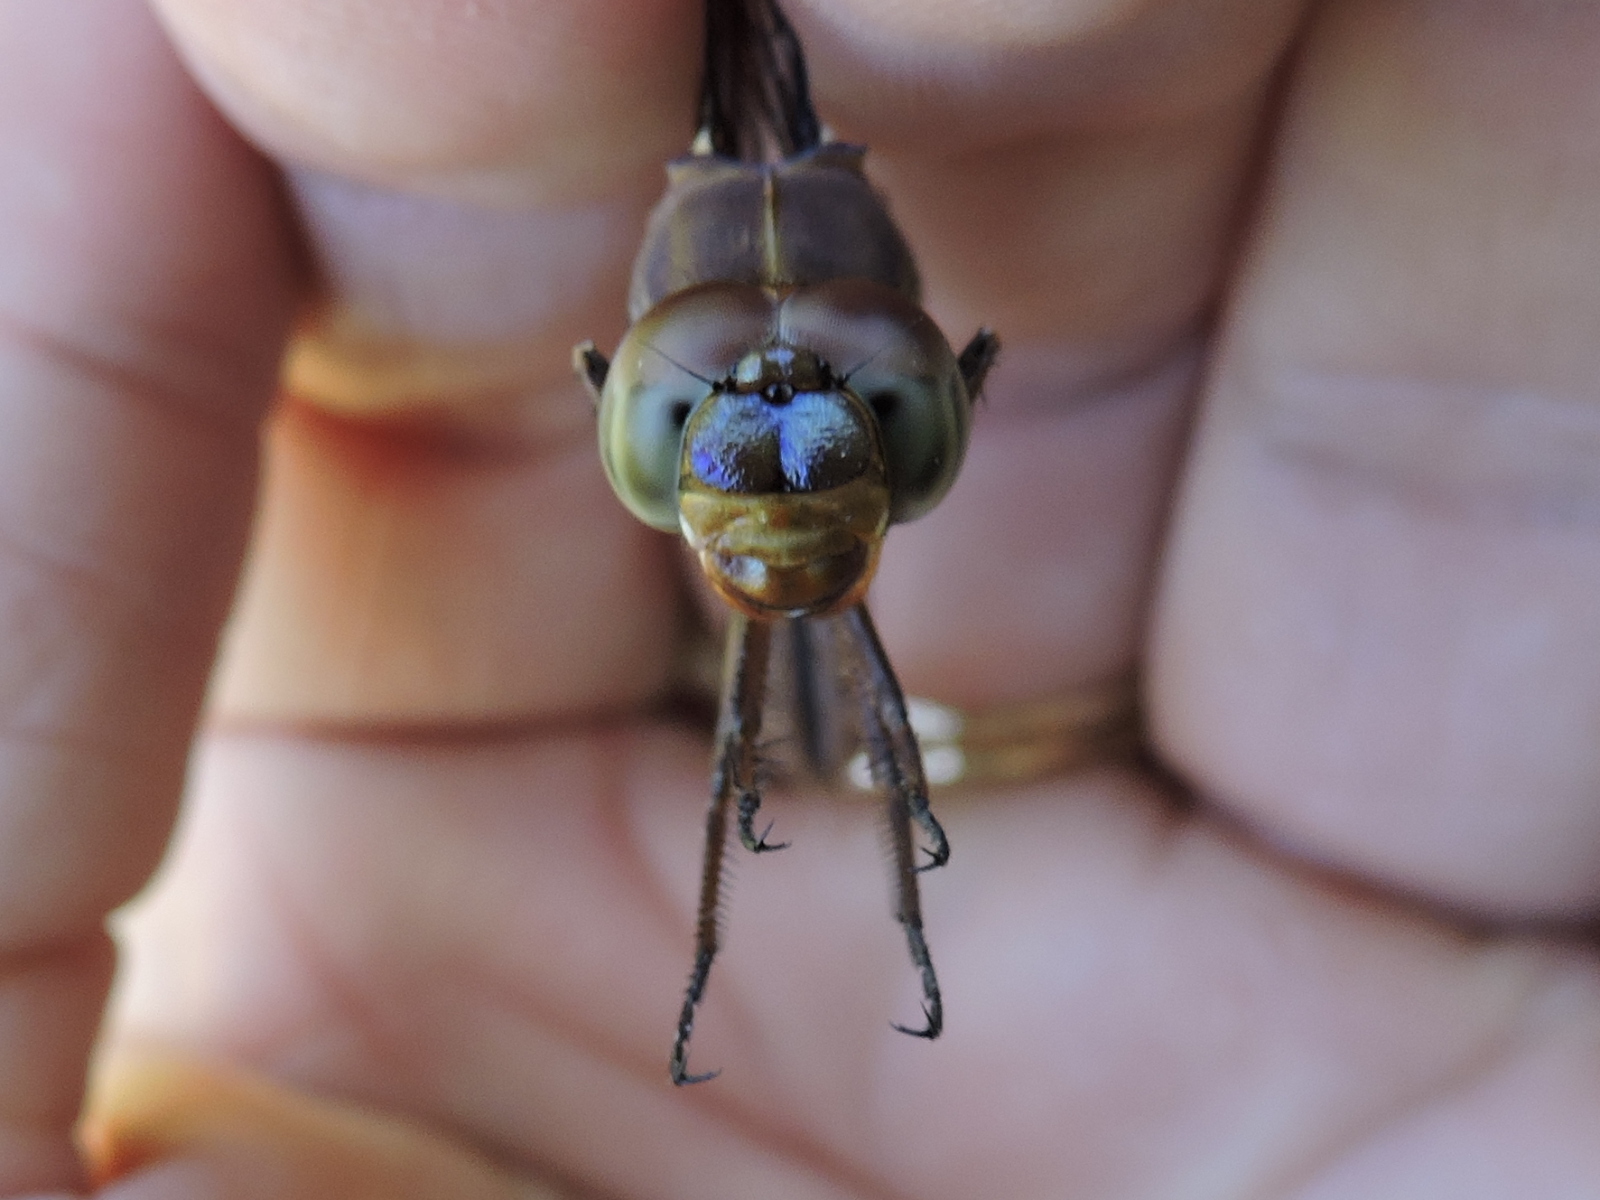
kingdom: Animalia
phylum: Arthropoda
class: Insecta
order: Odonata
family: Libellulidae
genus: Orthemis
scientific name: Orthemis ferruginea
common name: Roseate skimmer
